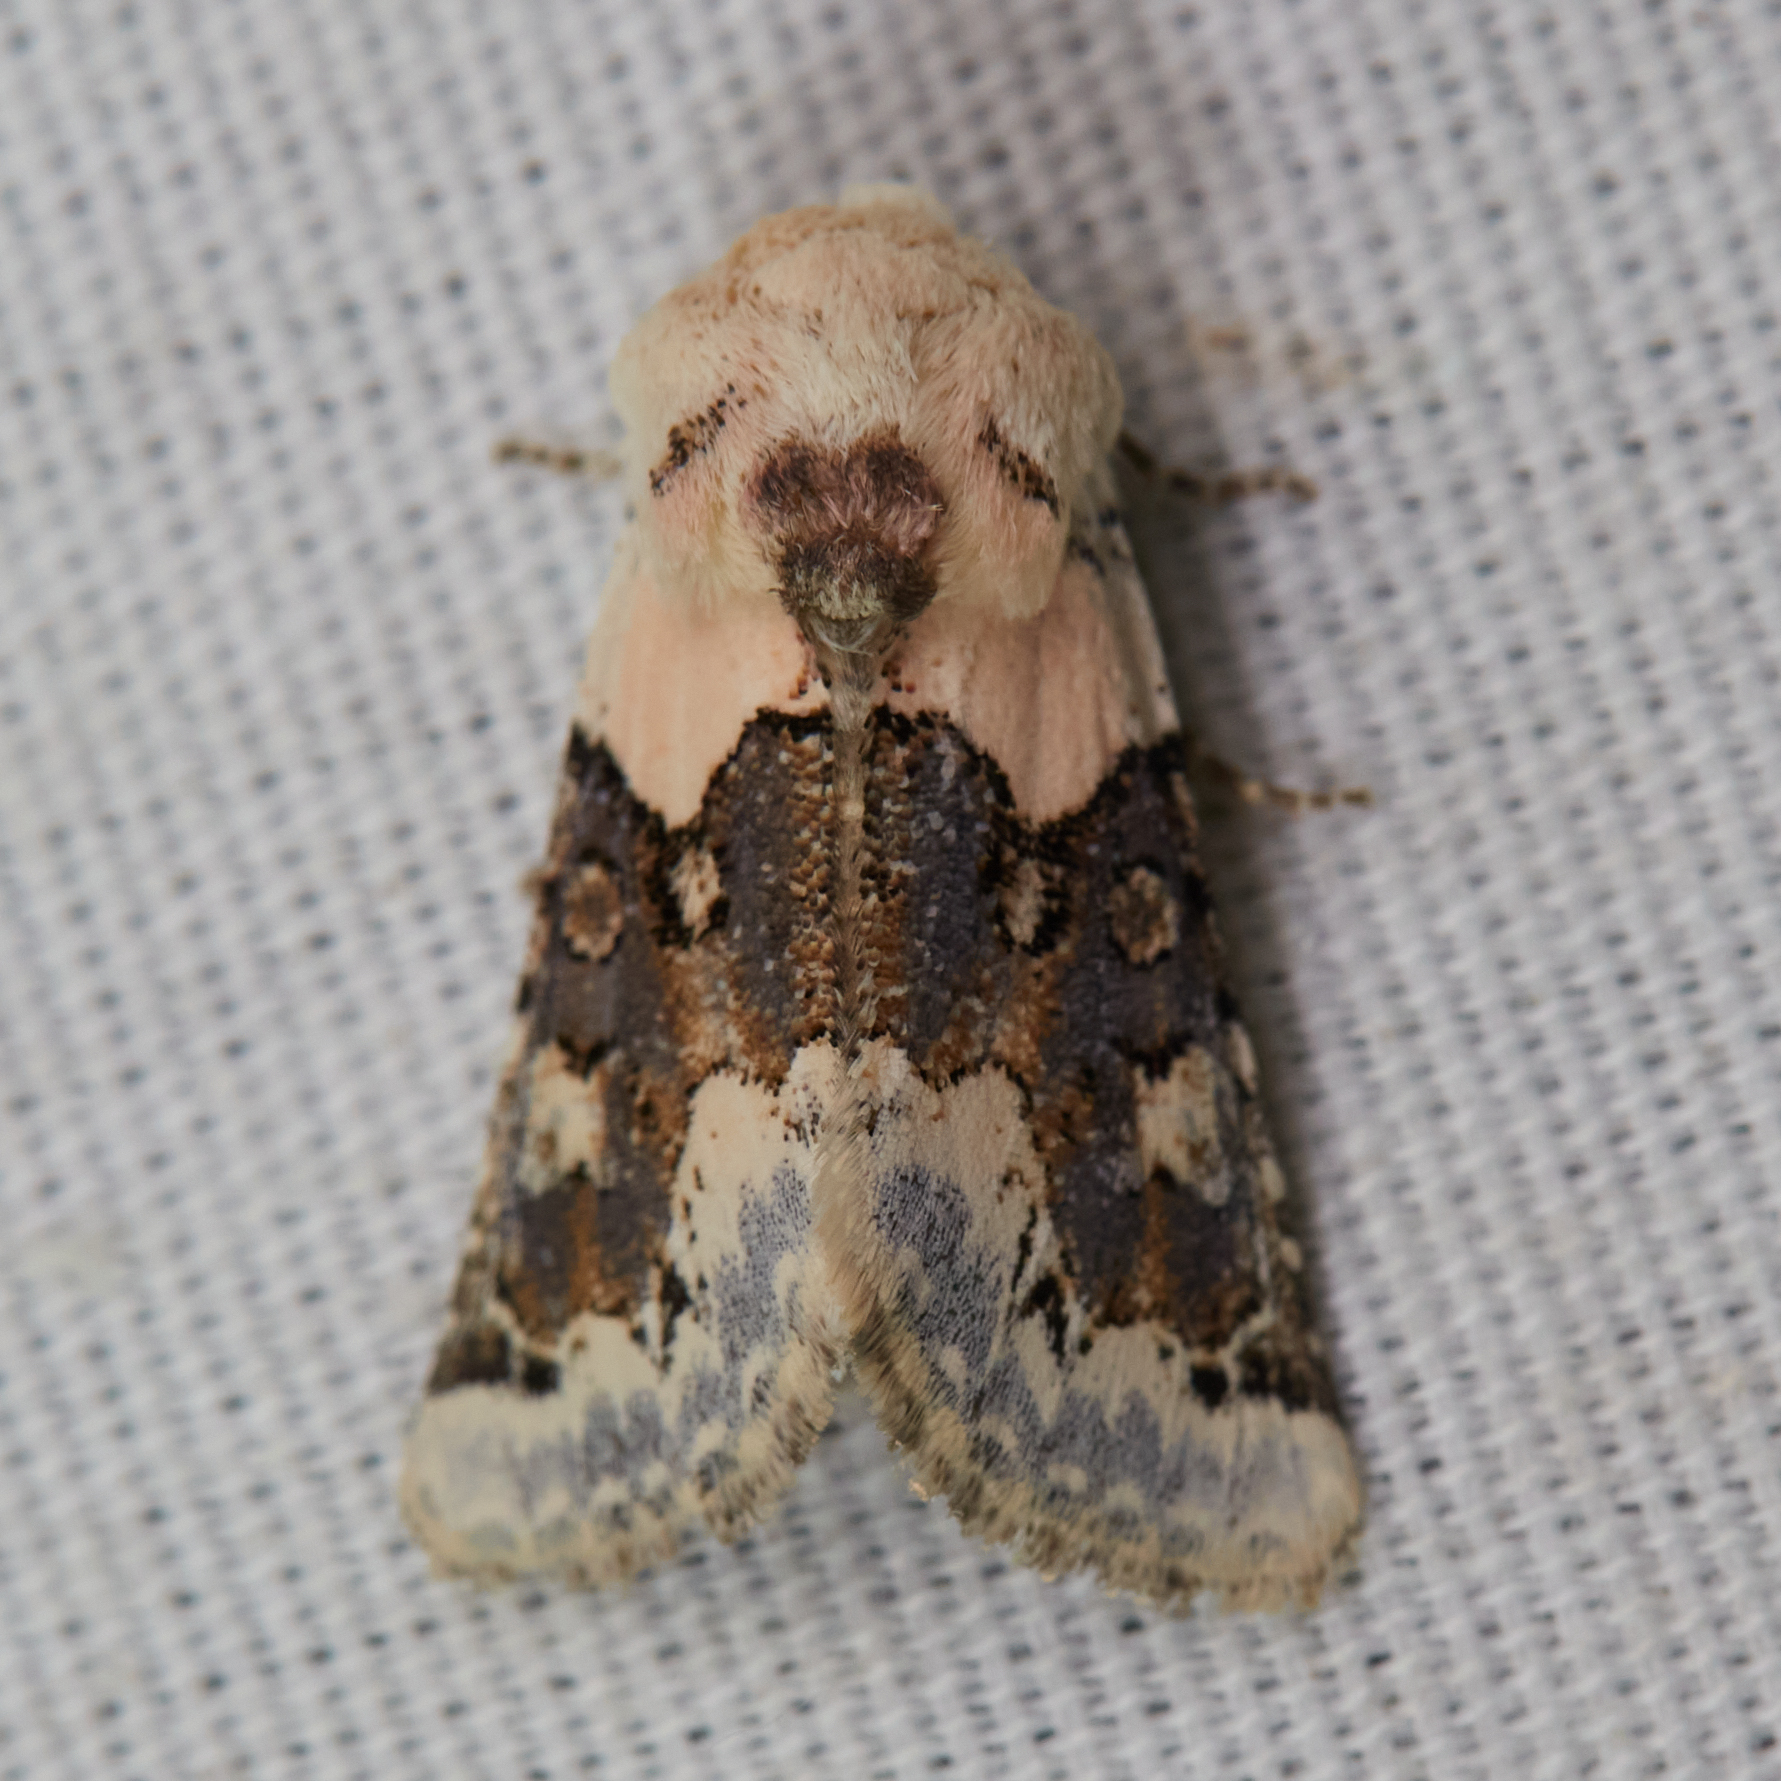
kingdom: Animalia
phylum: Arthropoda
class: Insecta
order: Lepidoptera
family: Noctuidae
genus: Triocnemis
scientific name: Triocnemis saporis
